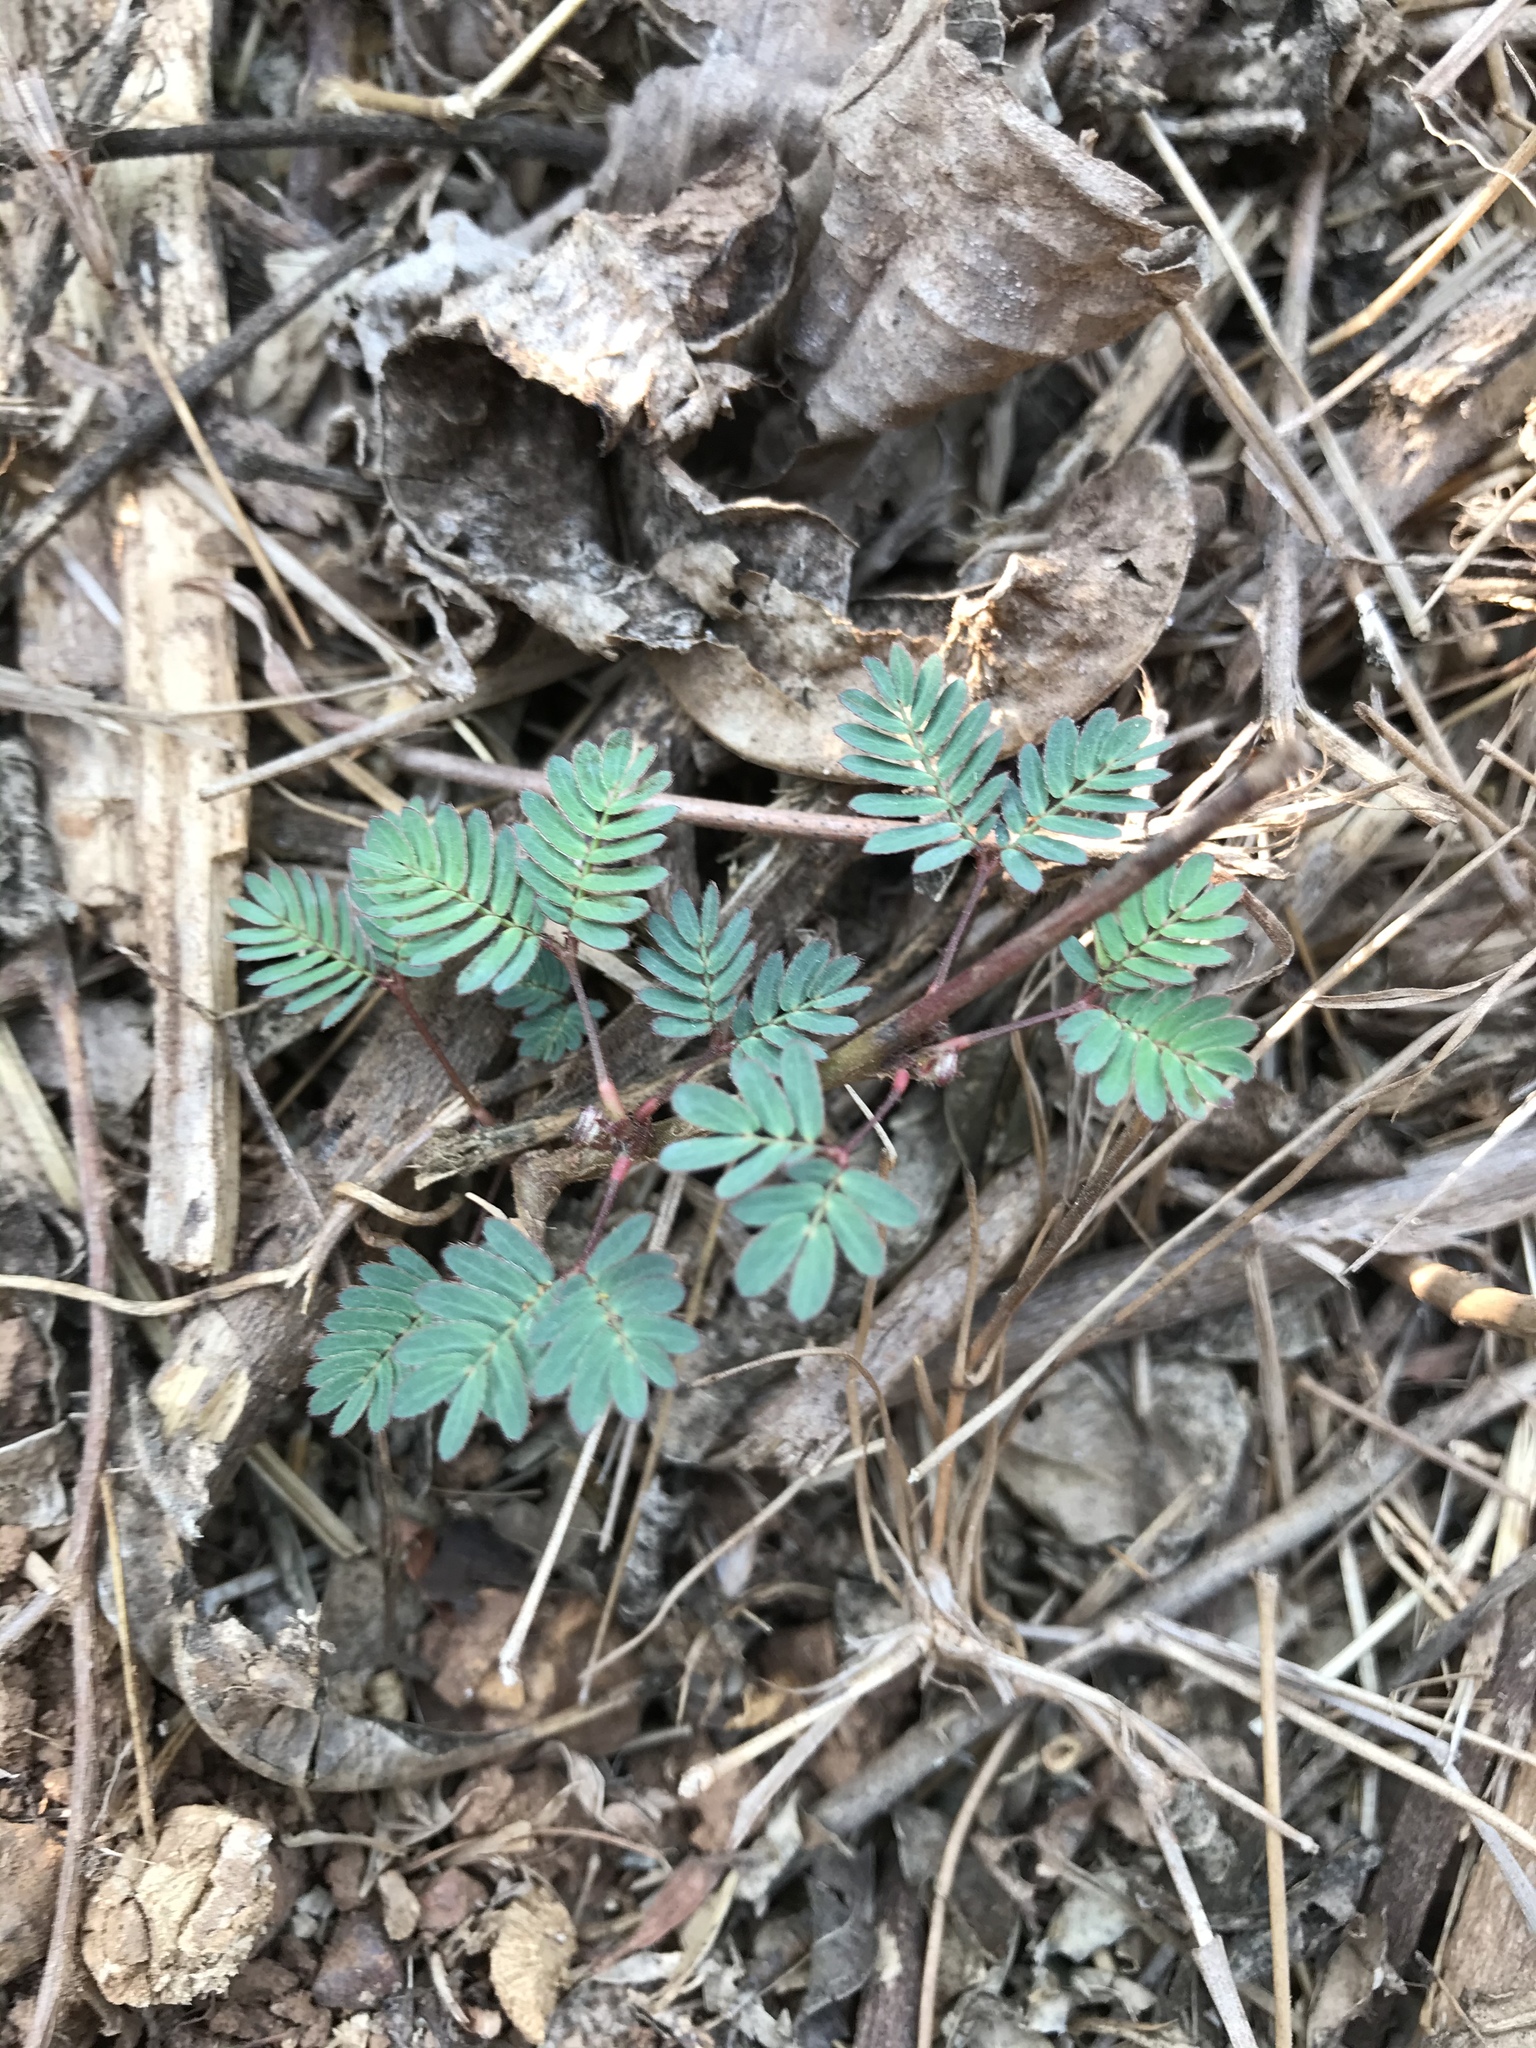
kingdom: Plantae
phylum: Tracheophyta
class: Magnoliopsida
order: Fabales
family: Fabaceae
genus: Mimosa
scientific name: Mimosa pudica
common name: Sensitive plant
